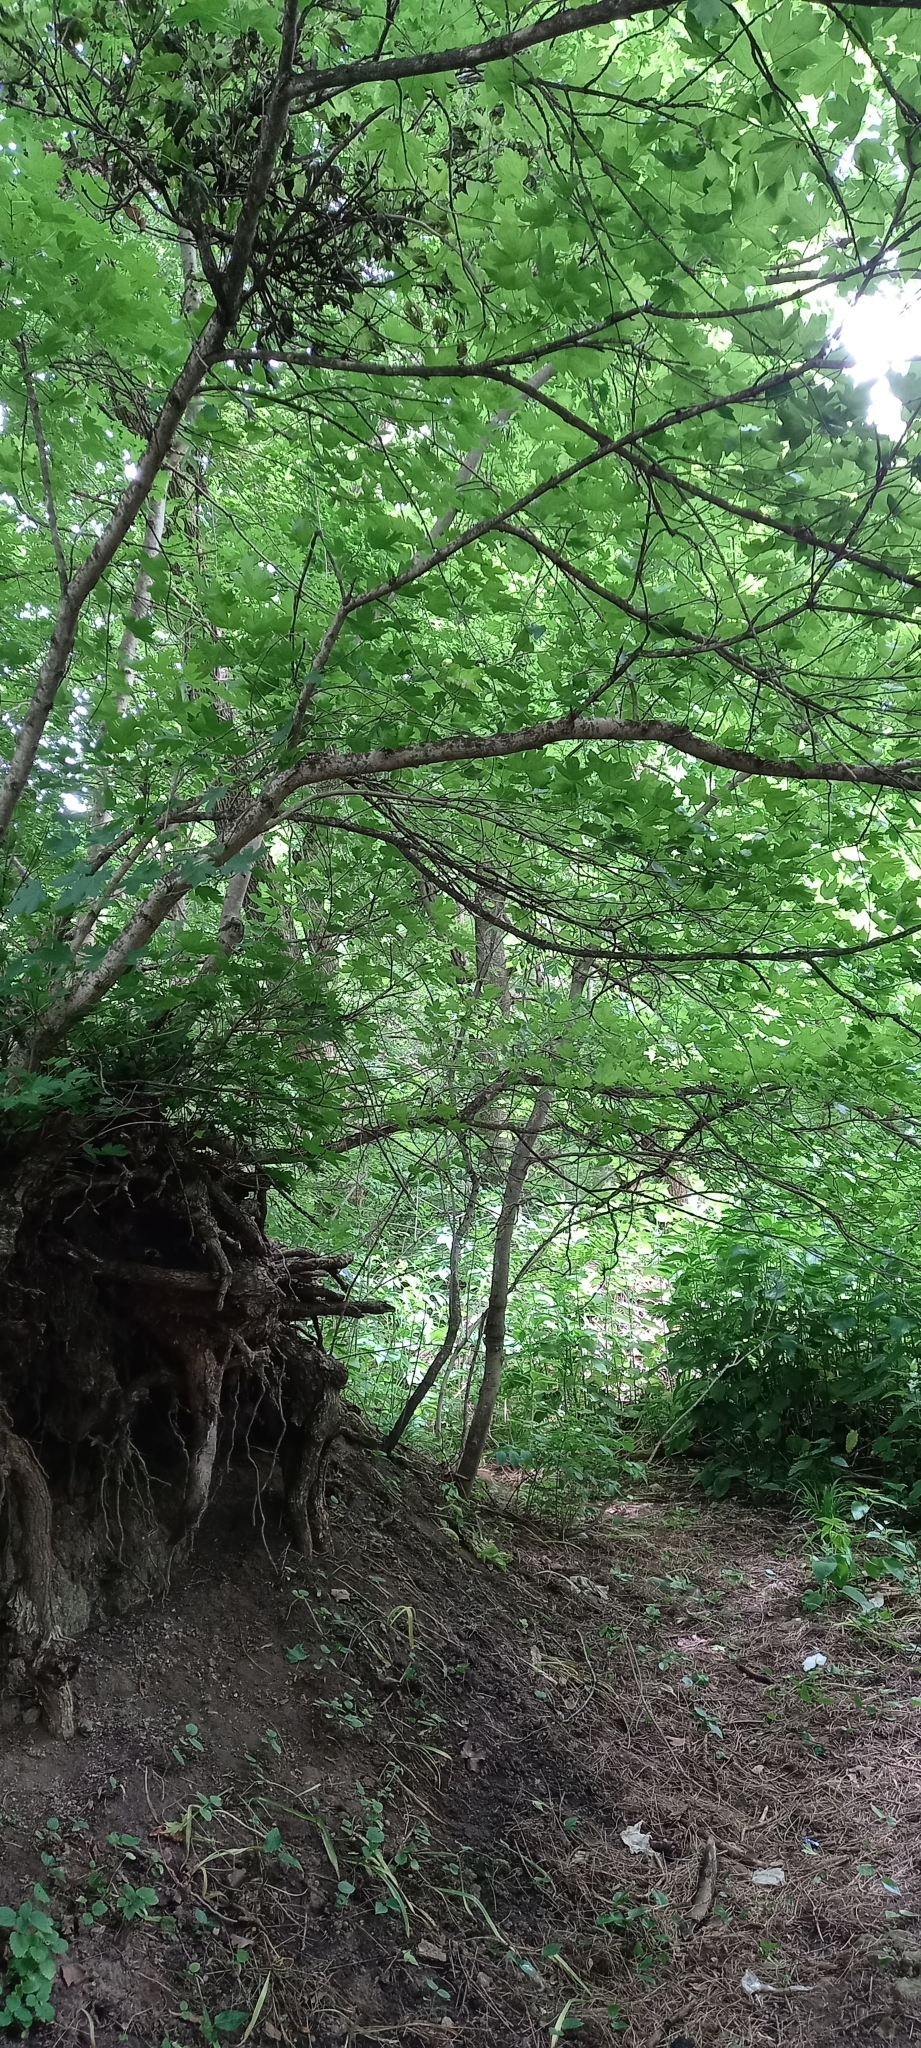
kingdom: Plantae
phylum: Tracheophyta
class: Magnoliopsida
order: Sapindales
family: Sapindaceae
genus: Acer
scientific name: Acer campestre
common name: Field maple
